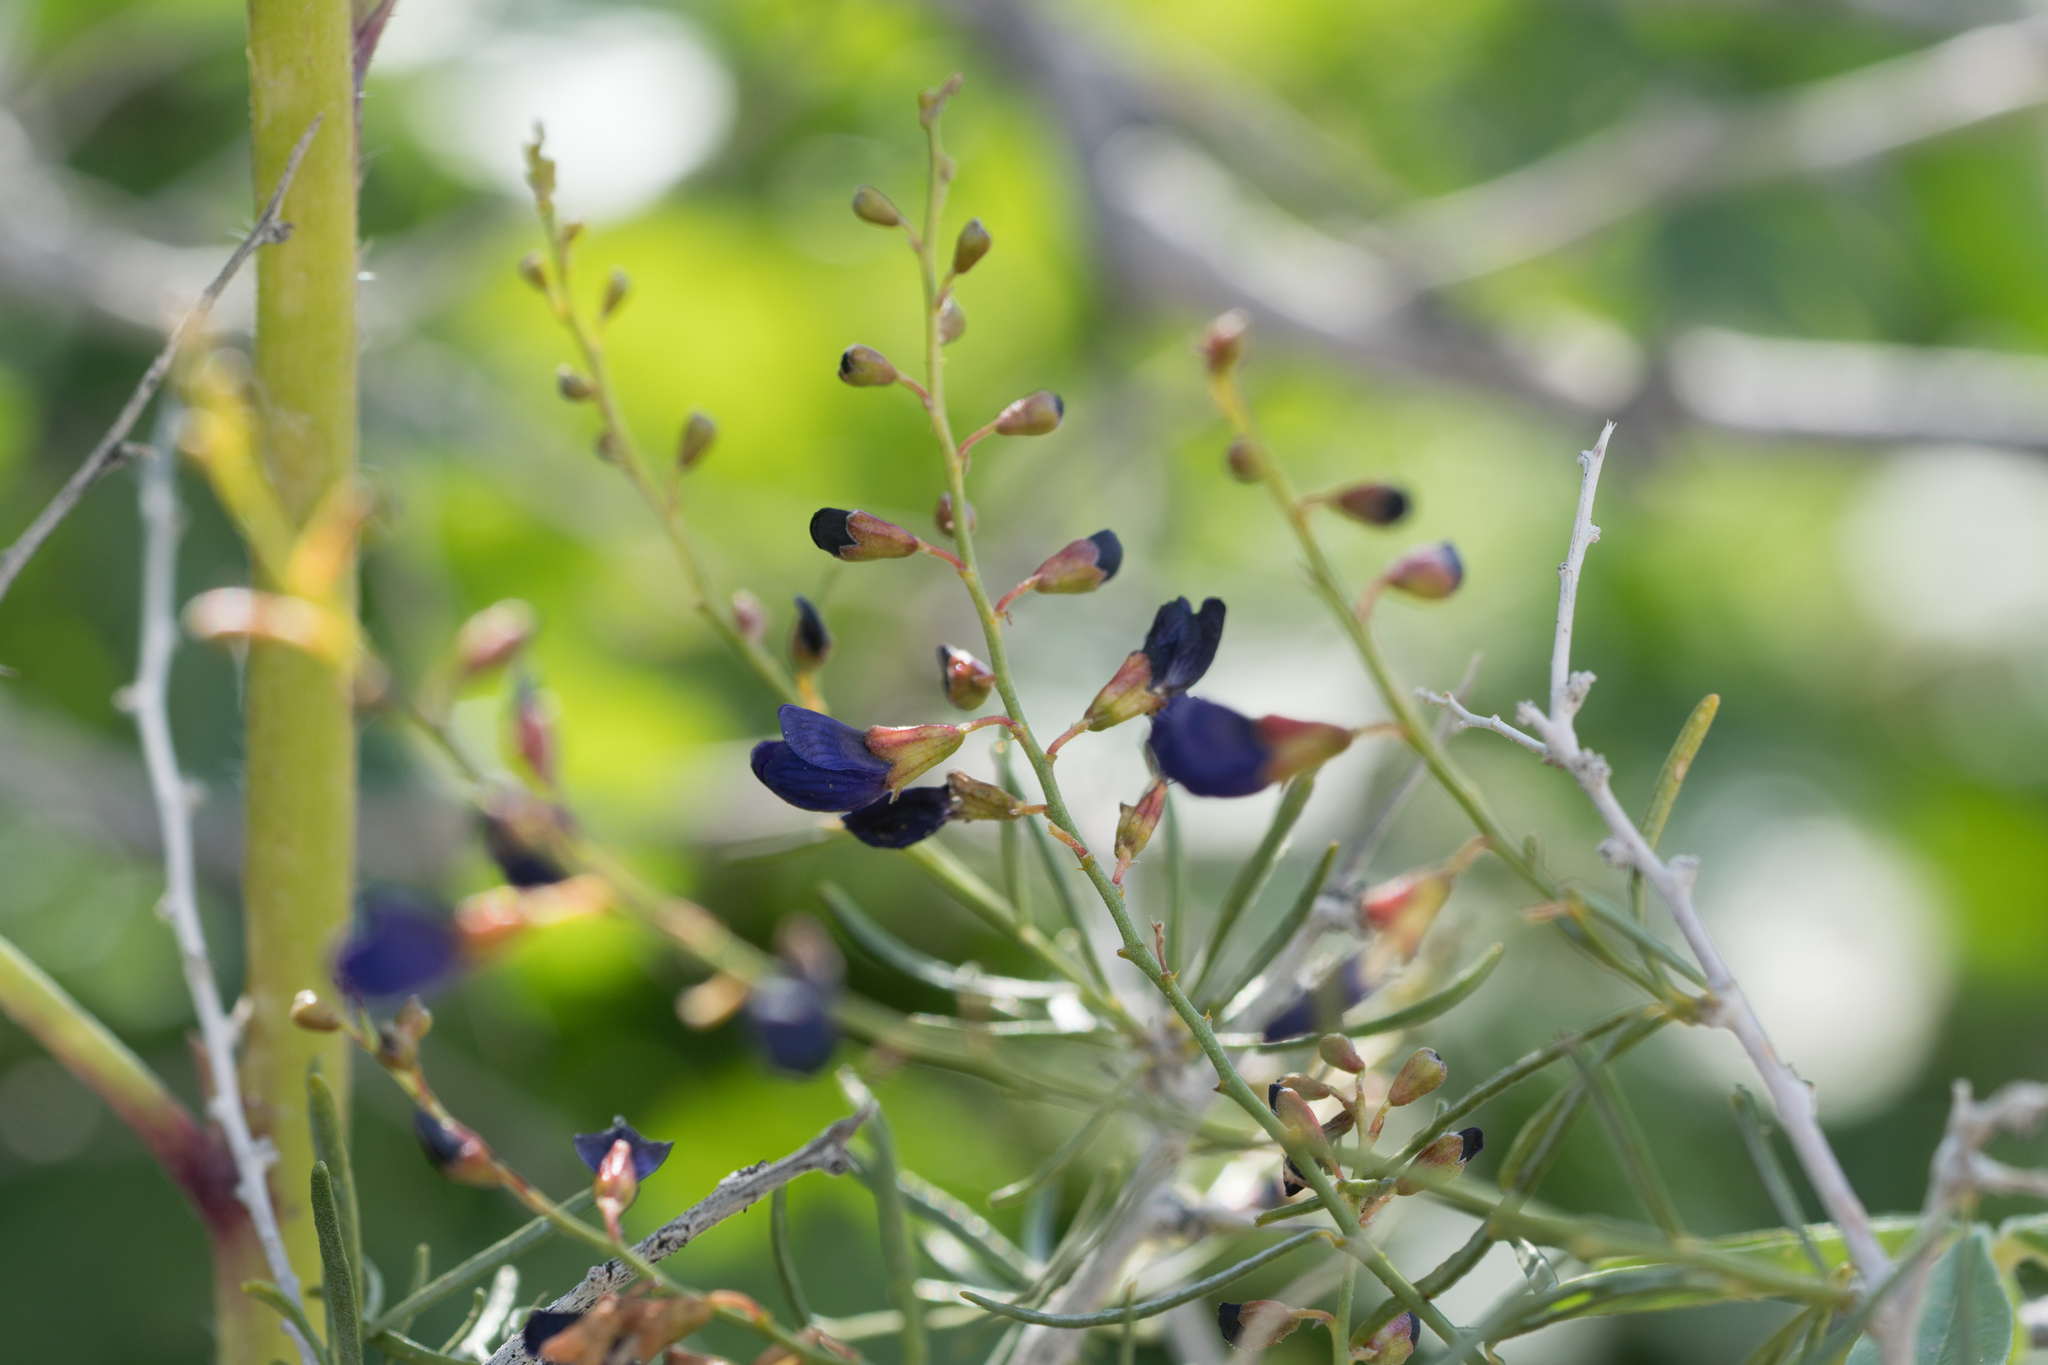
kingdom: Plantae
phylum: Tracheophyta
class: Magnoliopsida
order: Fabales
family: Fabaceae
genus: Psorothamnus
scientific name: Psorothamnus schottii
